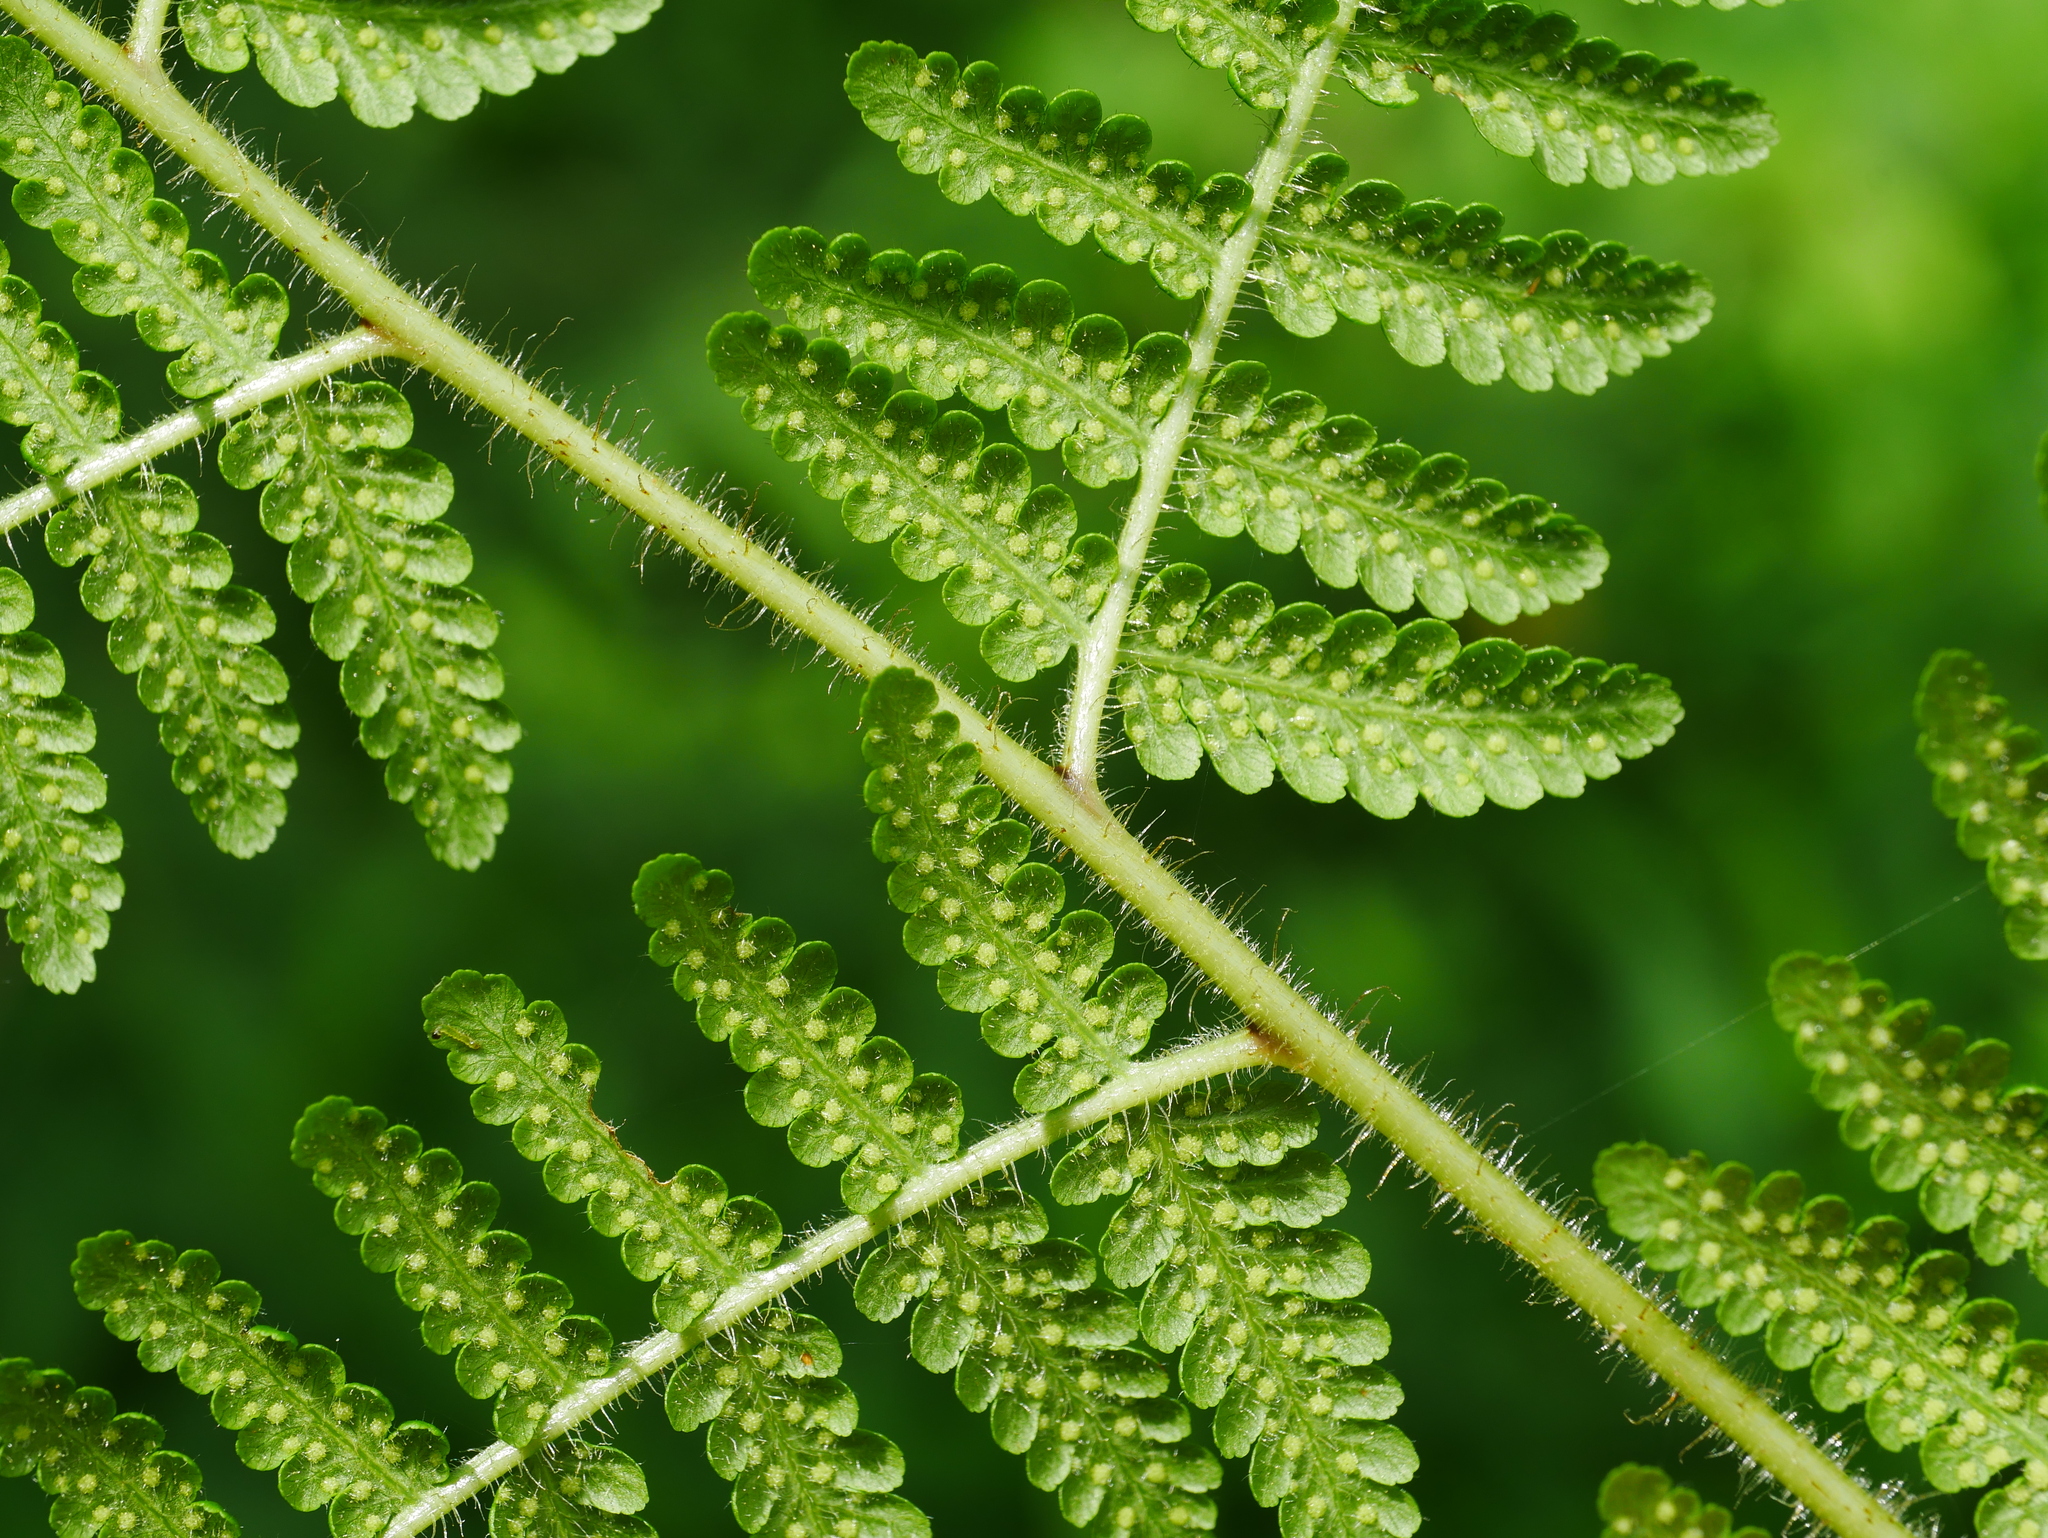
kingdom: Plantae
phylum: Tracheophyta
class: Polypodiopsida
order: Polypodiales
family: Dennstaedtiaceae
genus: Hypolepis
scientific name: Hypolepis punctata
